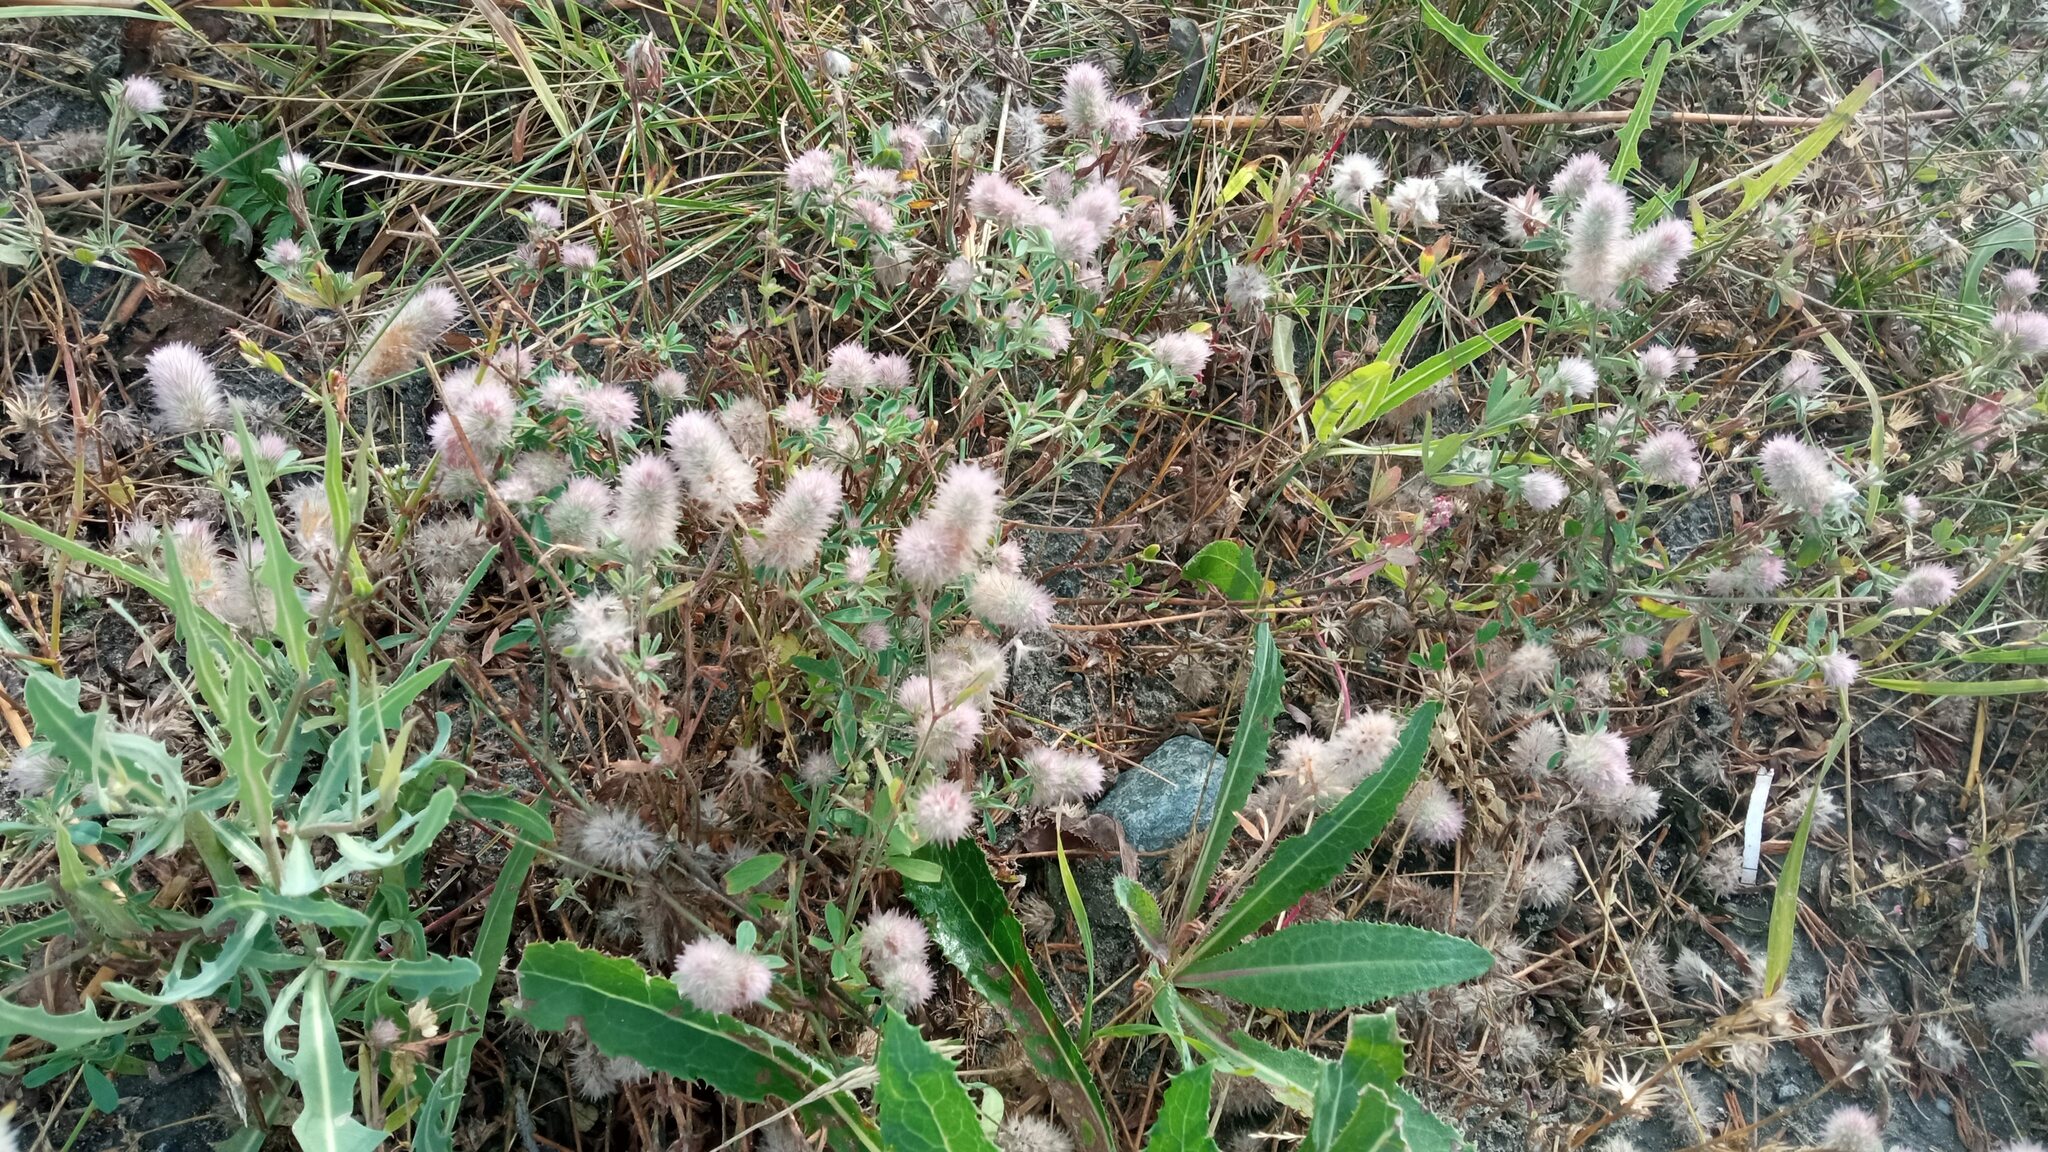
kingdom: Plantae
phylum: Tracheophyta
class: Magnoliopsida
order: Fabales
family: Fabaceae
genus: Trifolium
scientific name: Trifolium arvense
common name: Hare's-foot clover
